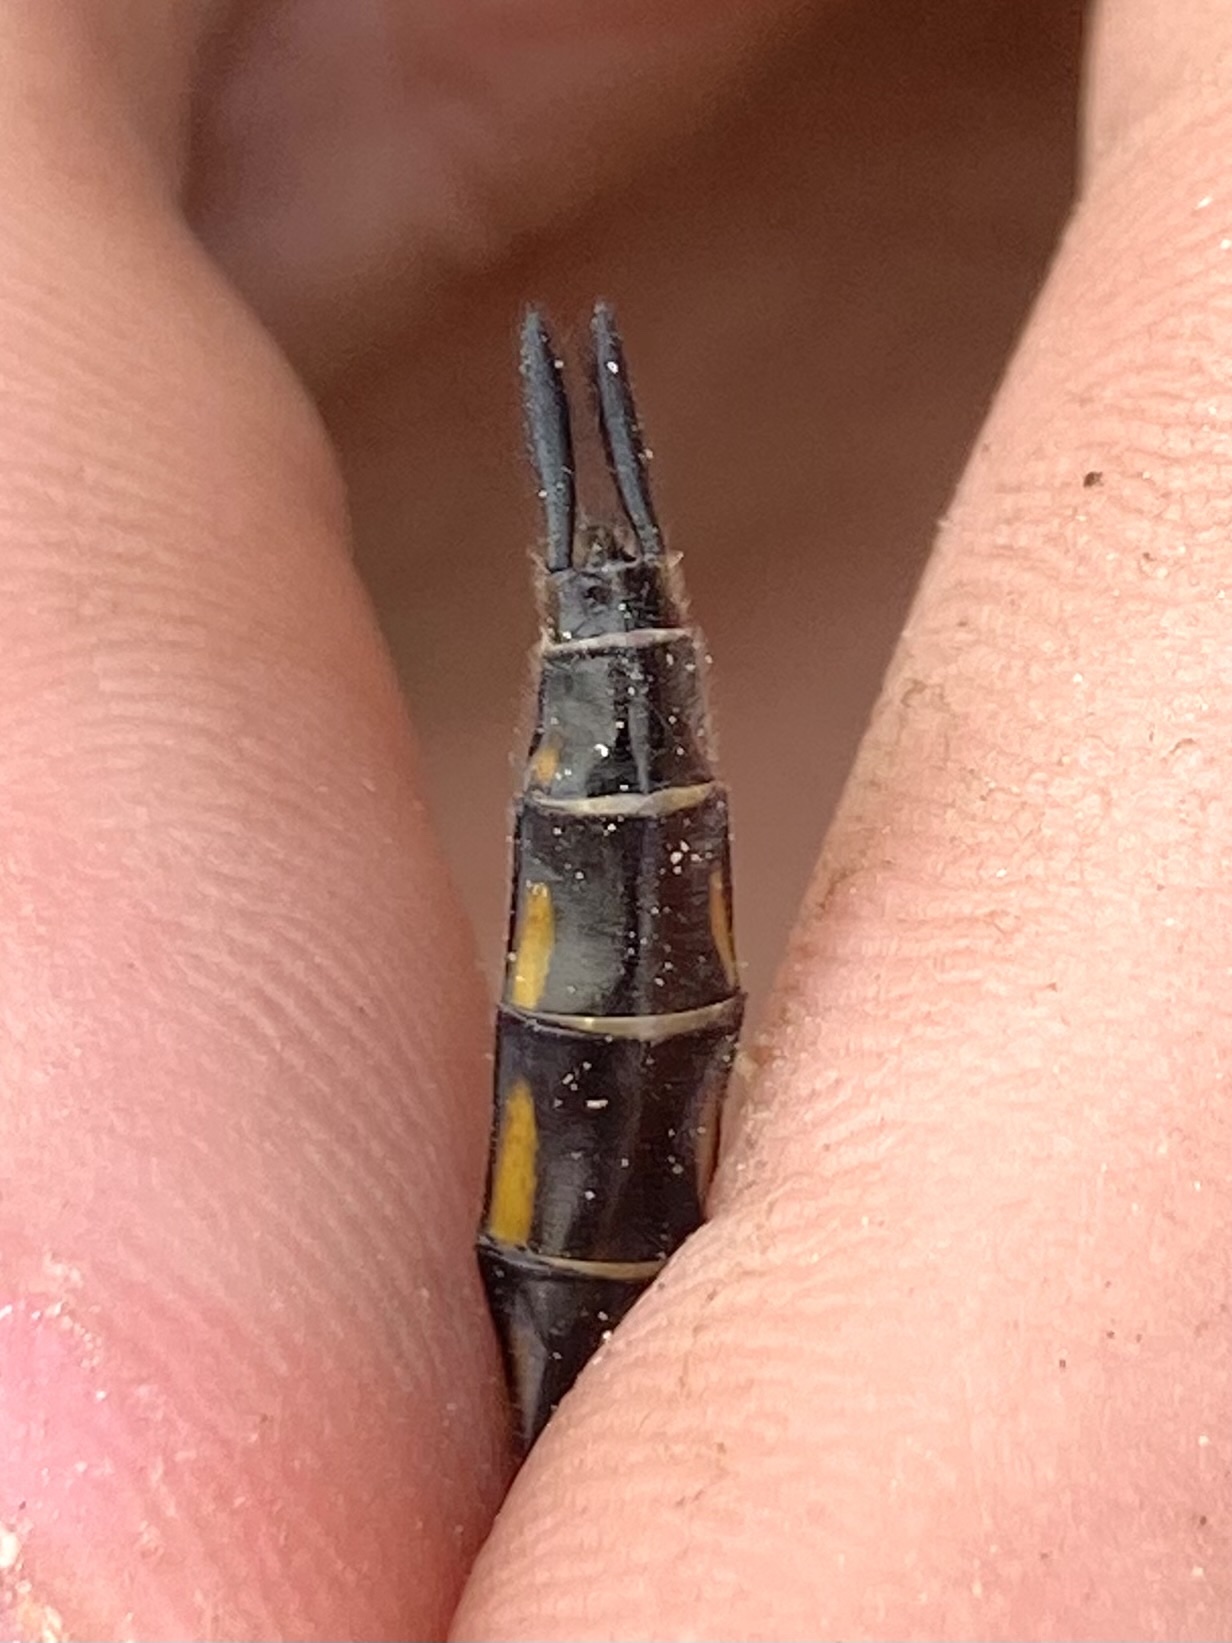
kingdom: Animalia
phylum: Arthropoda
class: Insecta
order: Odonata
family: Corduliidae
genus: Epitheca
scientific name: Epitheca spinigera
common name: Spiny baskettail
